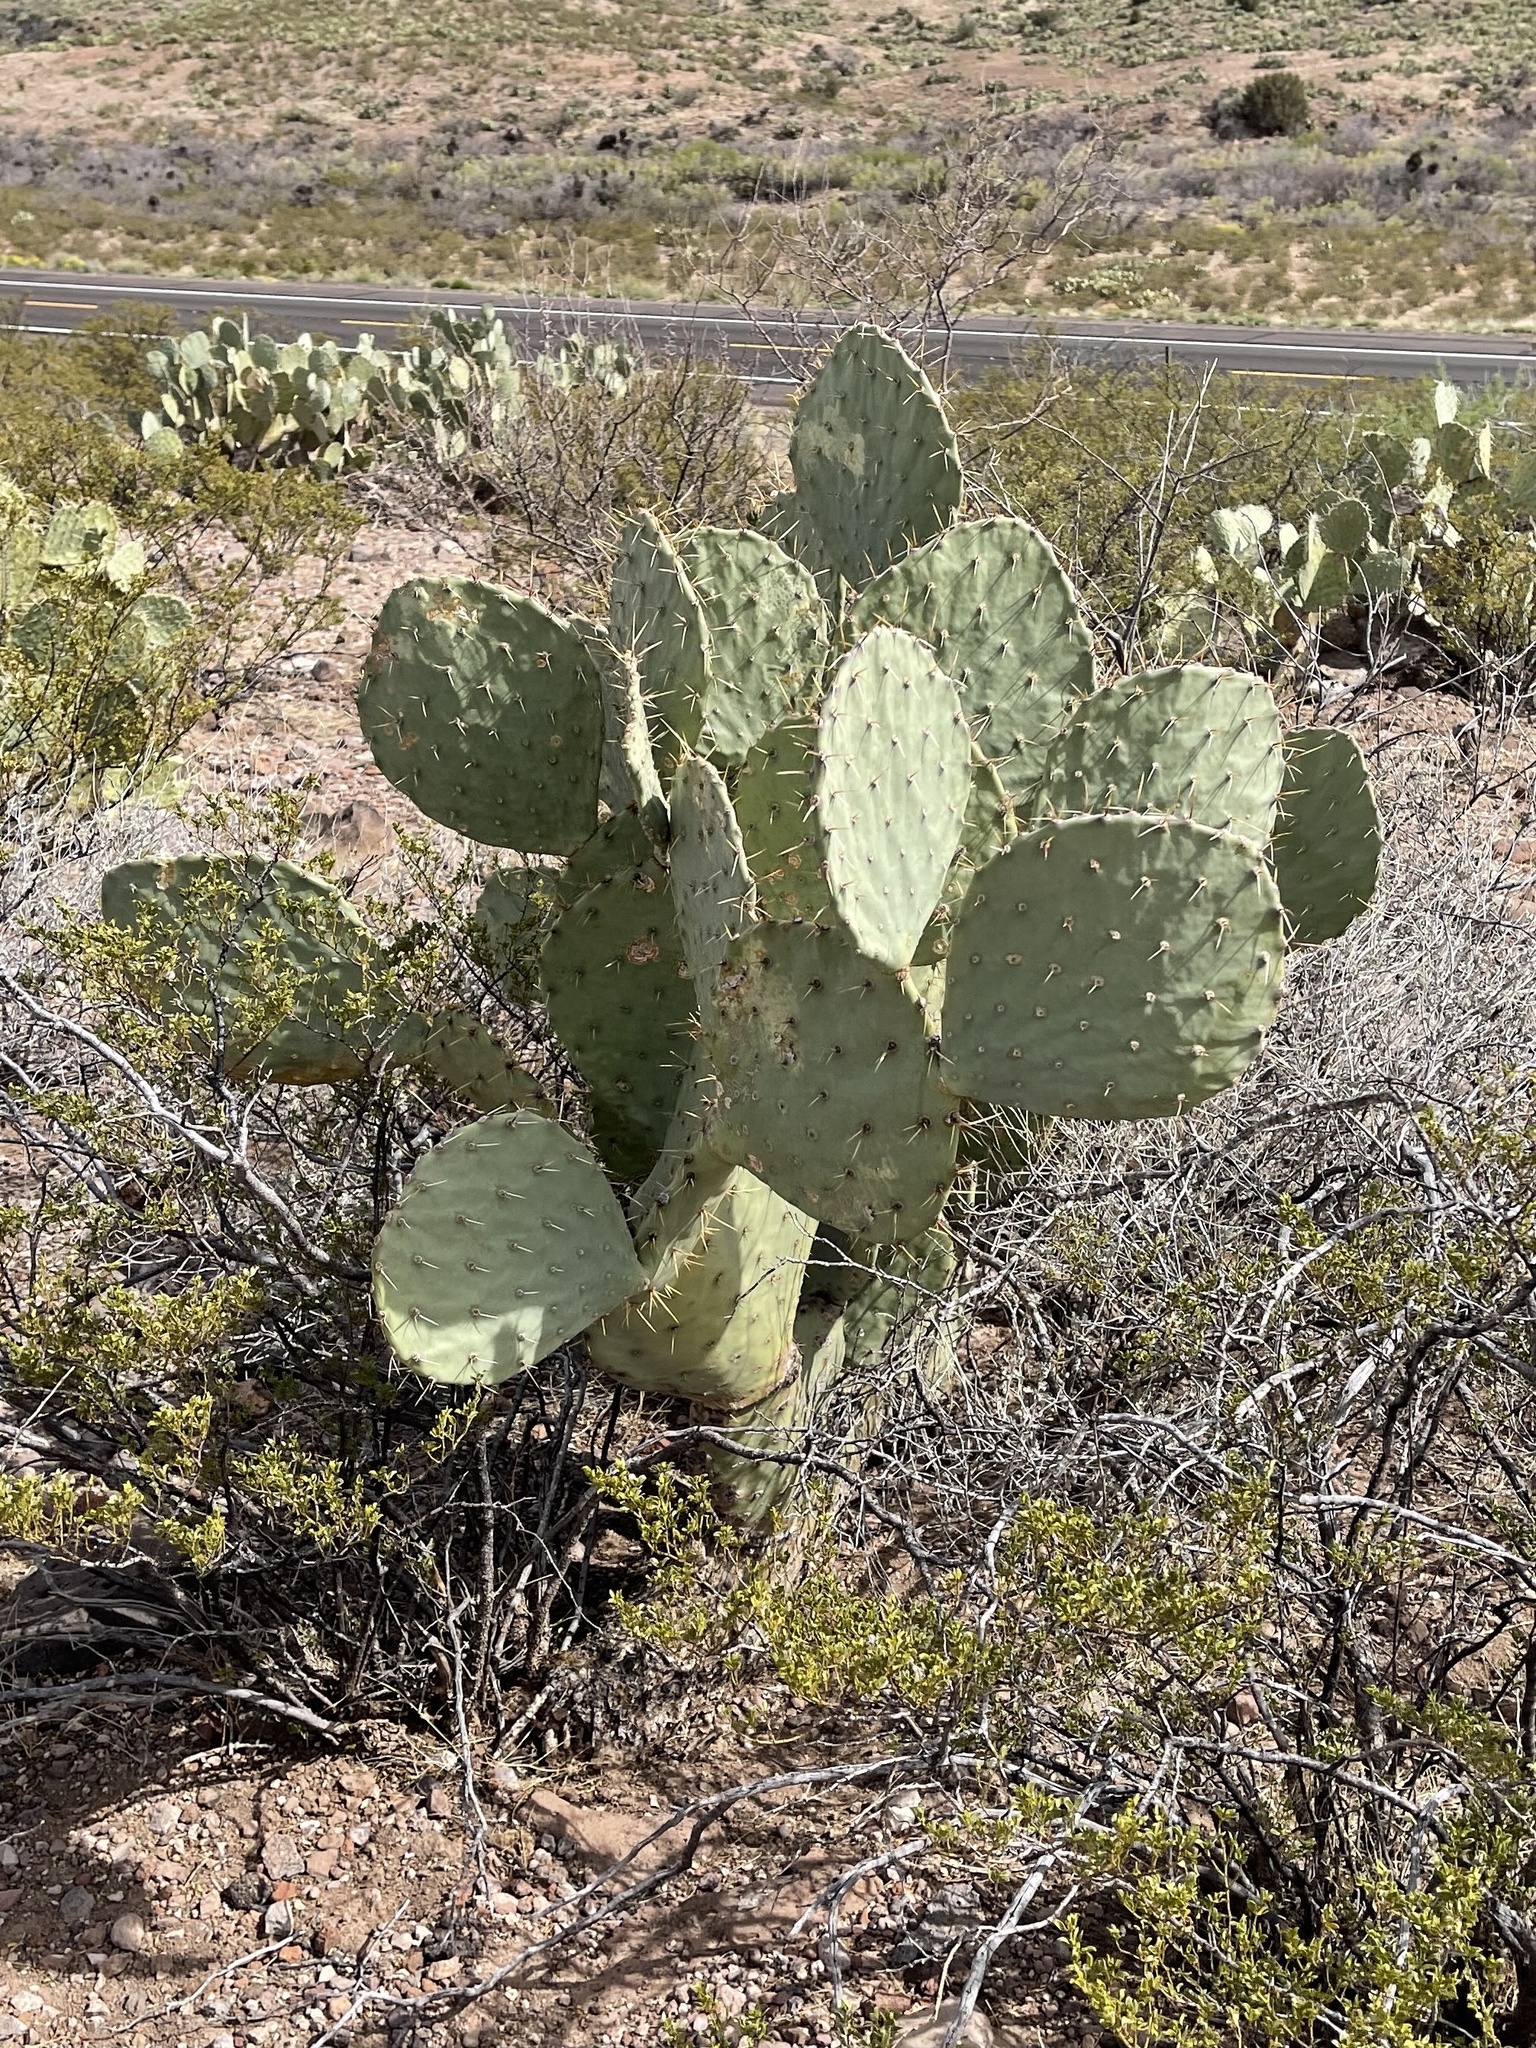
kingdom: Plantae
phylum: Tracheophyta
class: Magnoliopsida
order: Caryophyllales
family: Cactaceae
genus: Opuntia
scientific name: Opuntia engelmannii
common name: Cactus-apple
